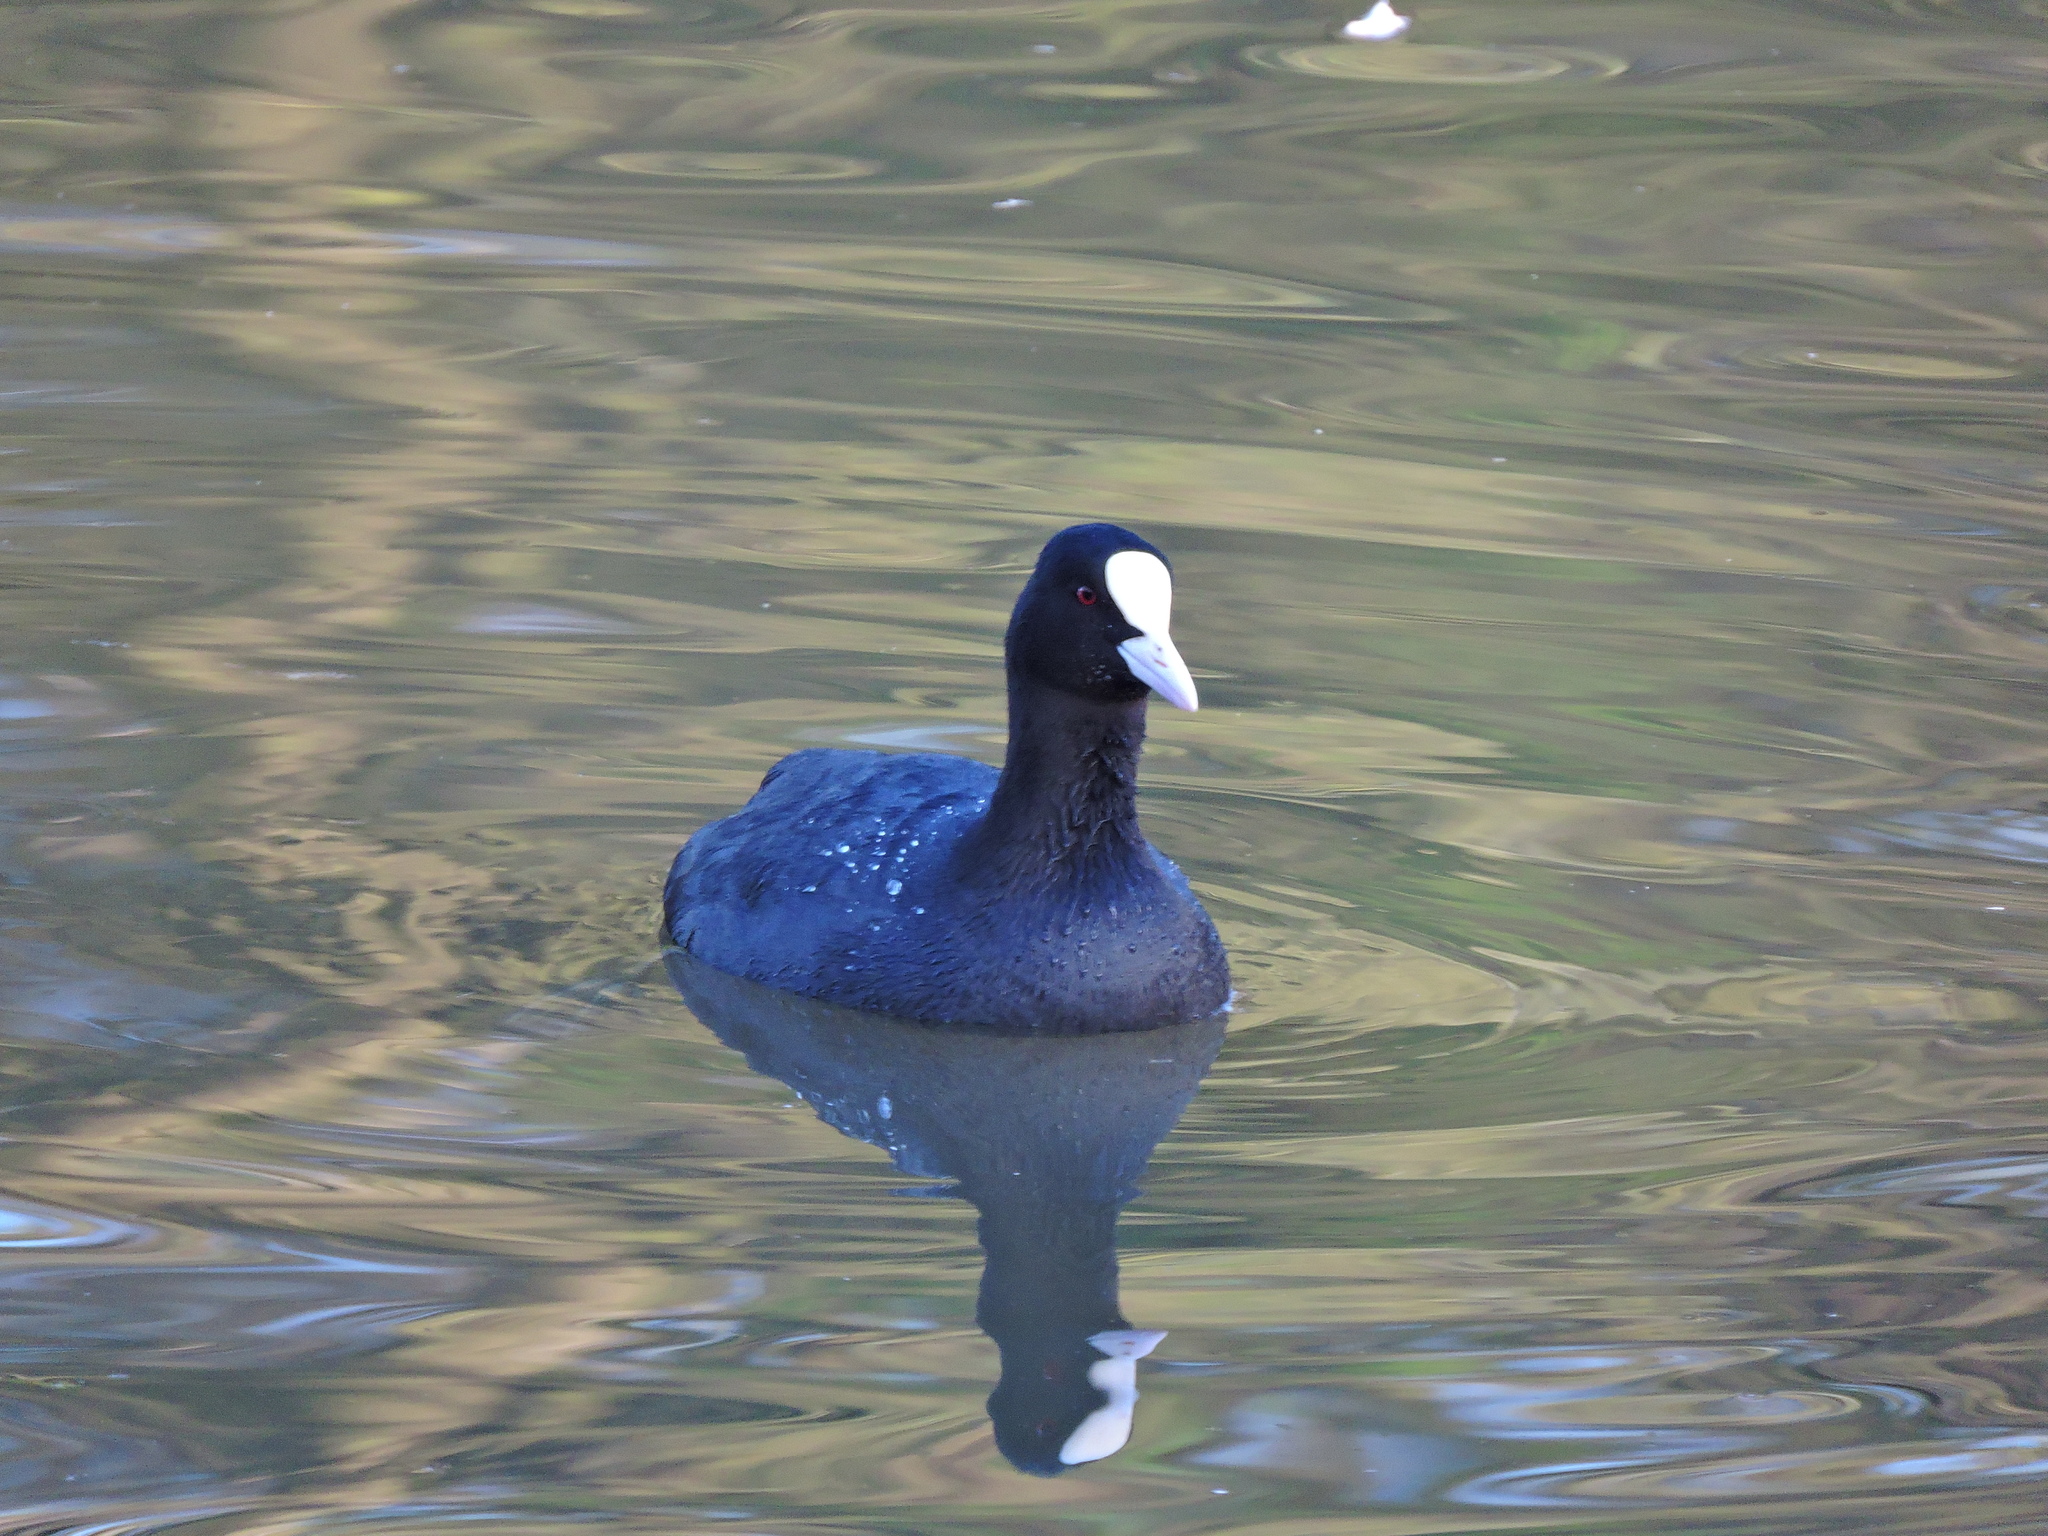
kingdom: Animalia
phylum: Chordata
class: Aves
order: Gruiformes
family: Rallidae
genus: Fulica
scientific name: Fulica atra
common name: Eurasian coot
